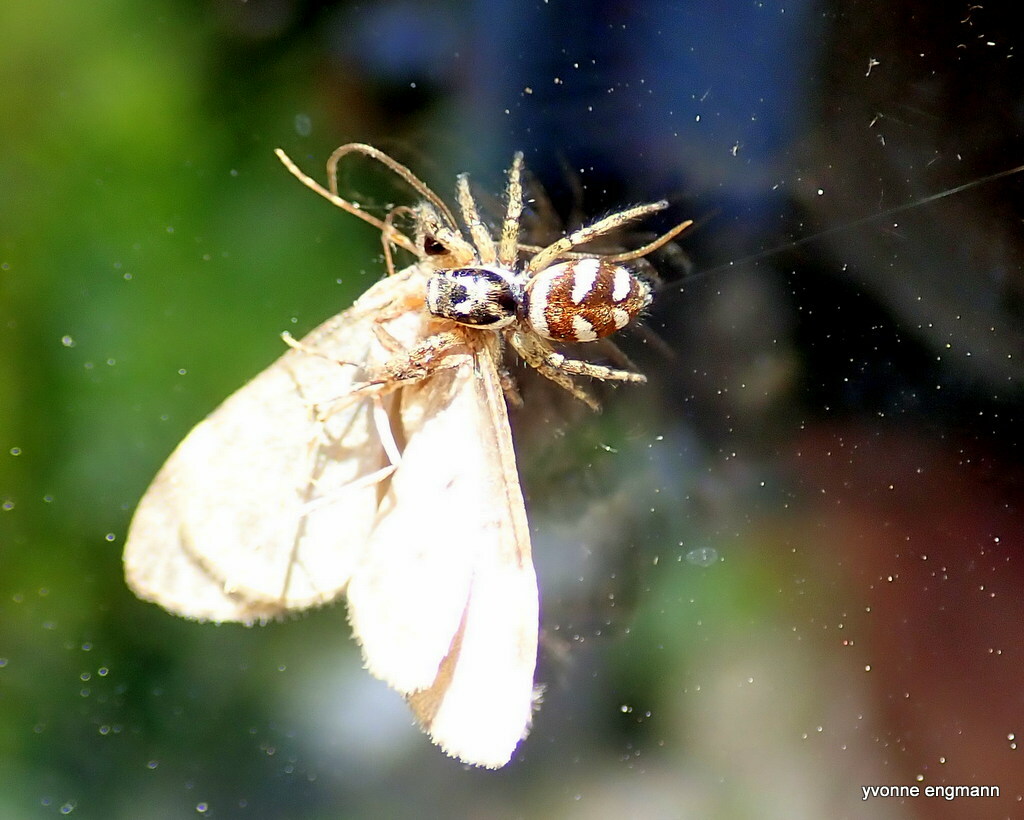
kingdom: Animalia
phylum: Arthropoda
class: Arachnida
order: Araneae
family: Salticidae
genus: Salticus
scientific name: Salticus scenicus
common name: Zebra jumper
